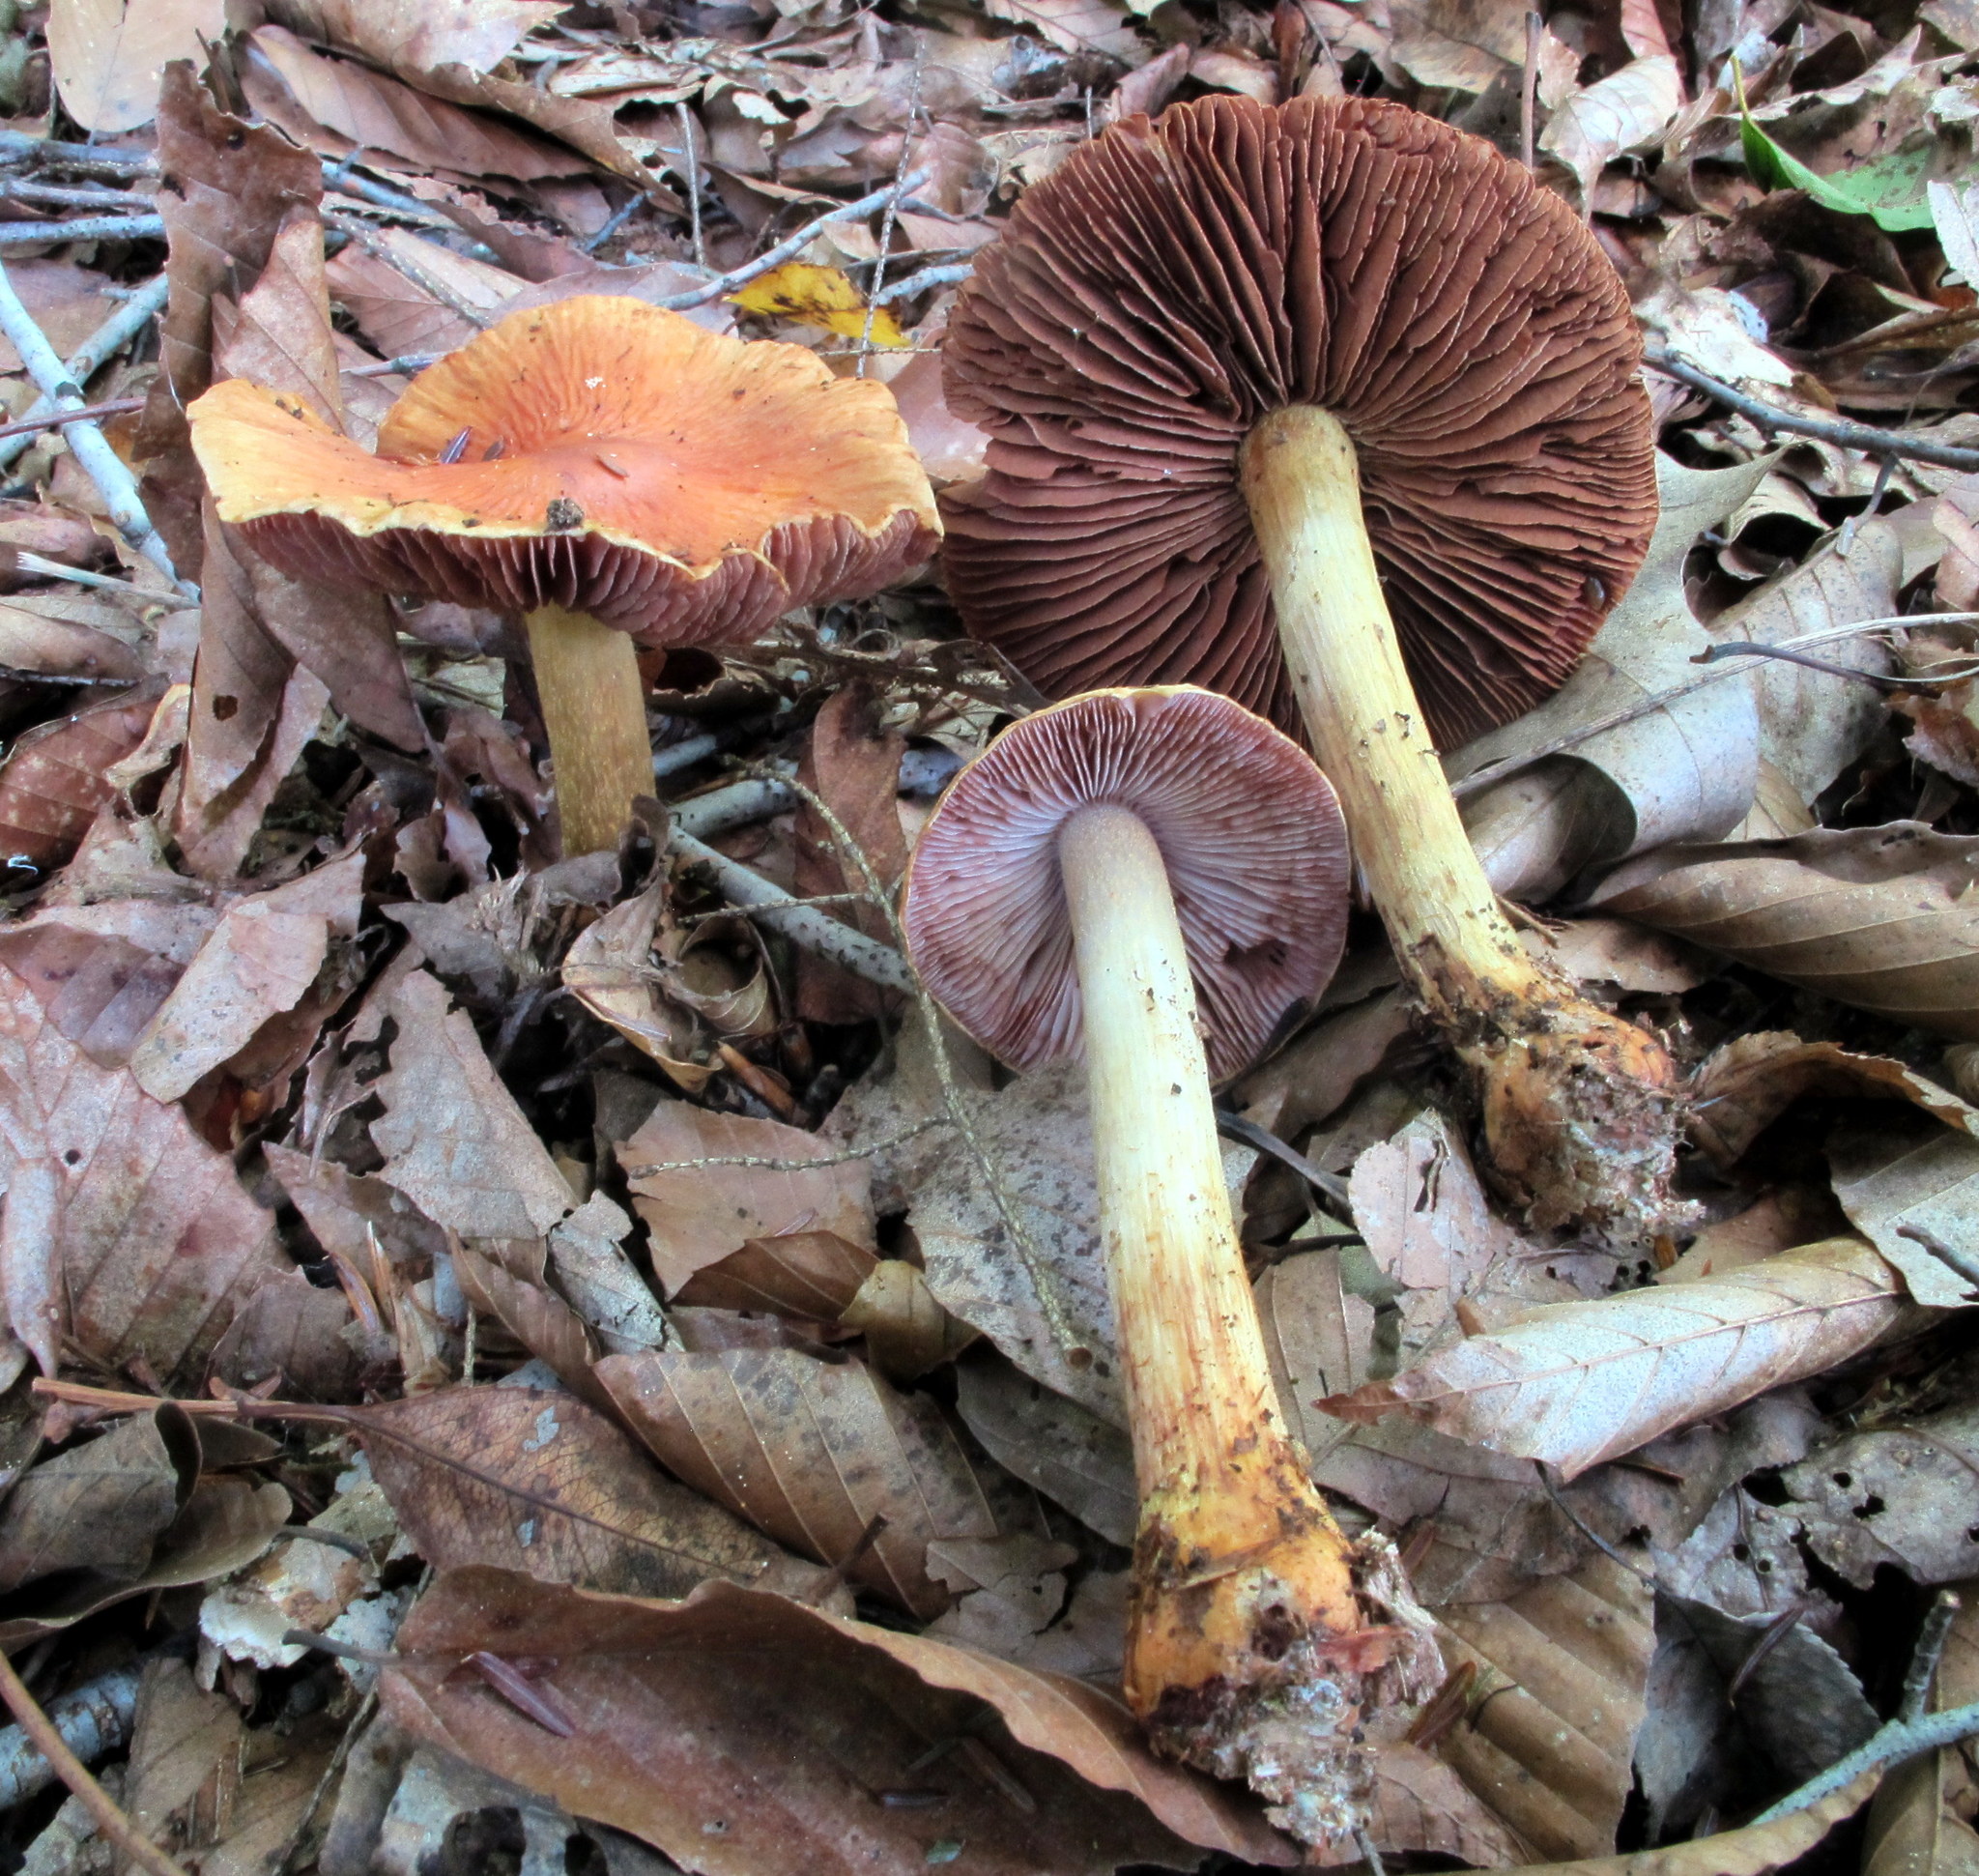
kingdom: Fungi
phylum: Basidiomycota
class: Agaricomycetes
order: Agaricales
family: Cortinariaceae
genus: Cortinarius
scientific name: Cortinarius corrugatus
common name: Wrinkled cortinarius
